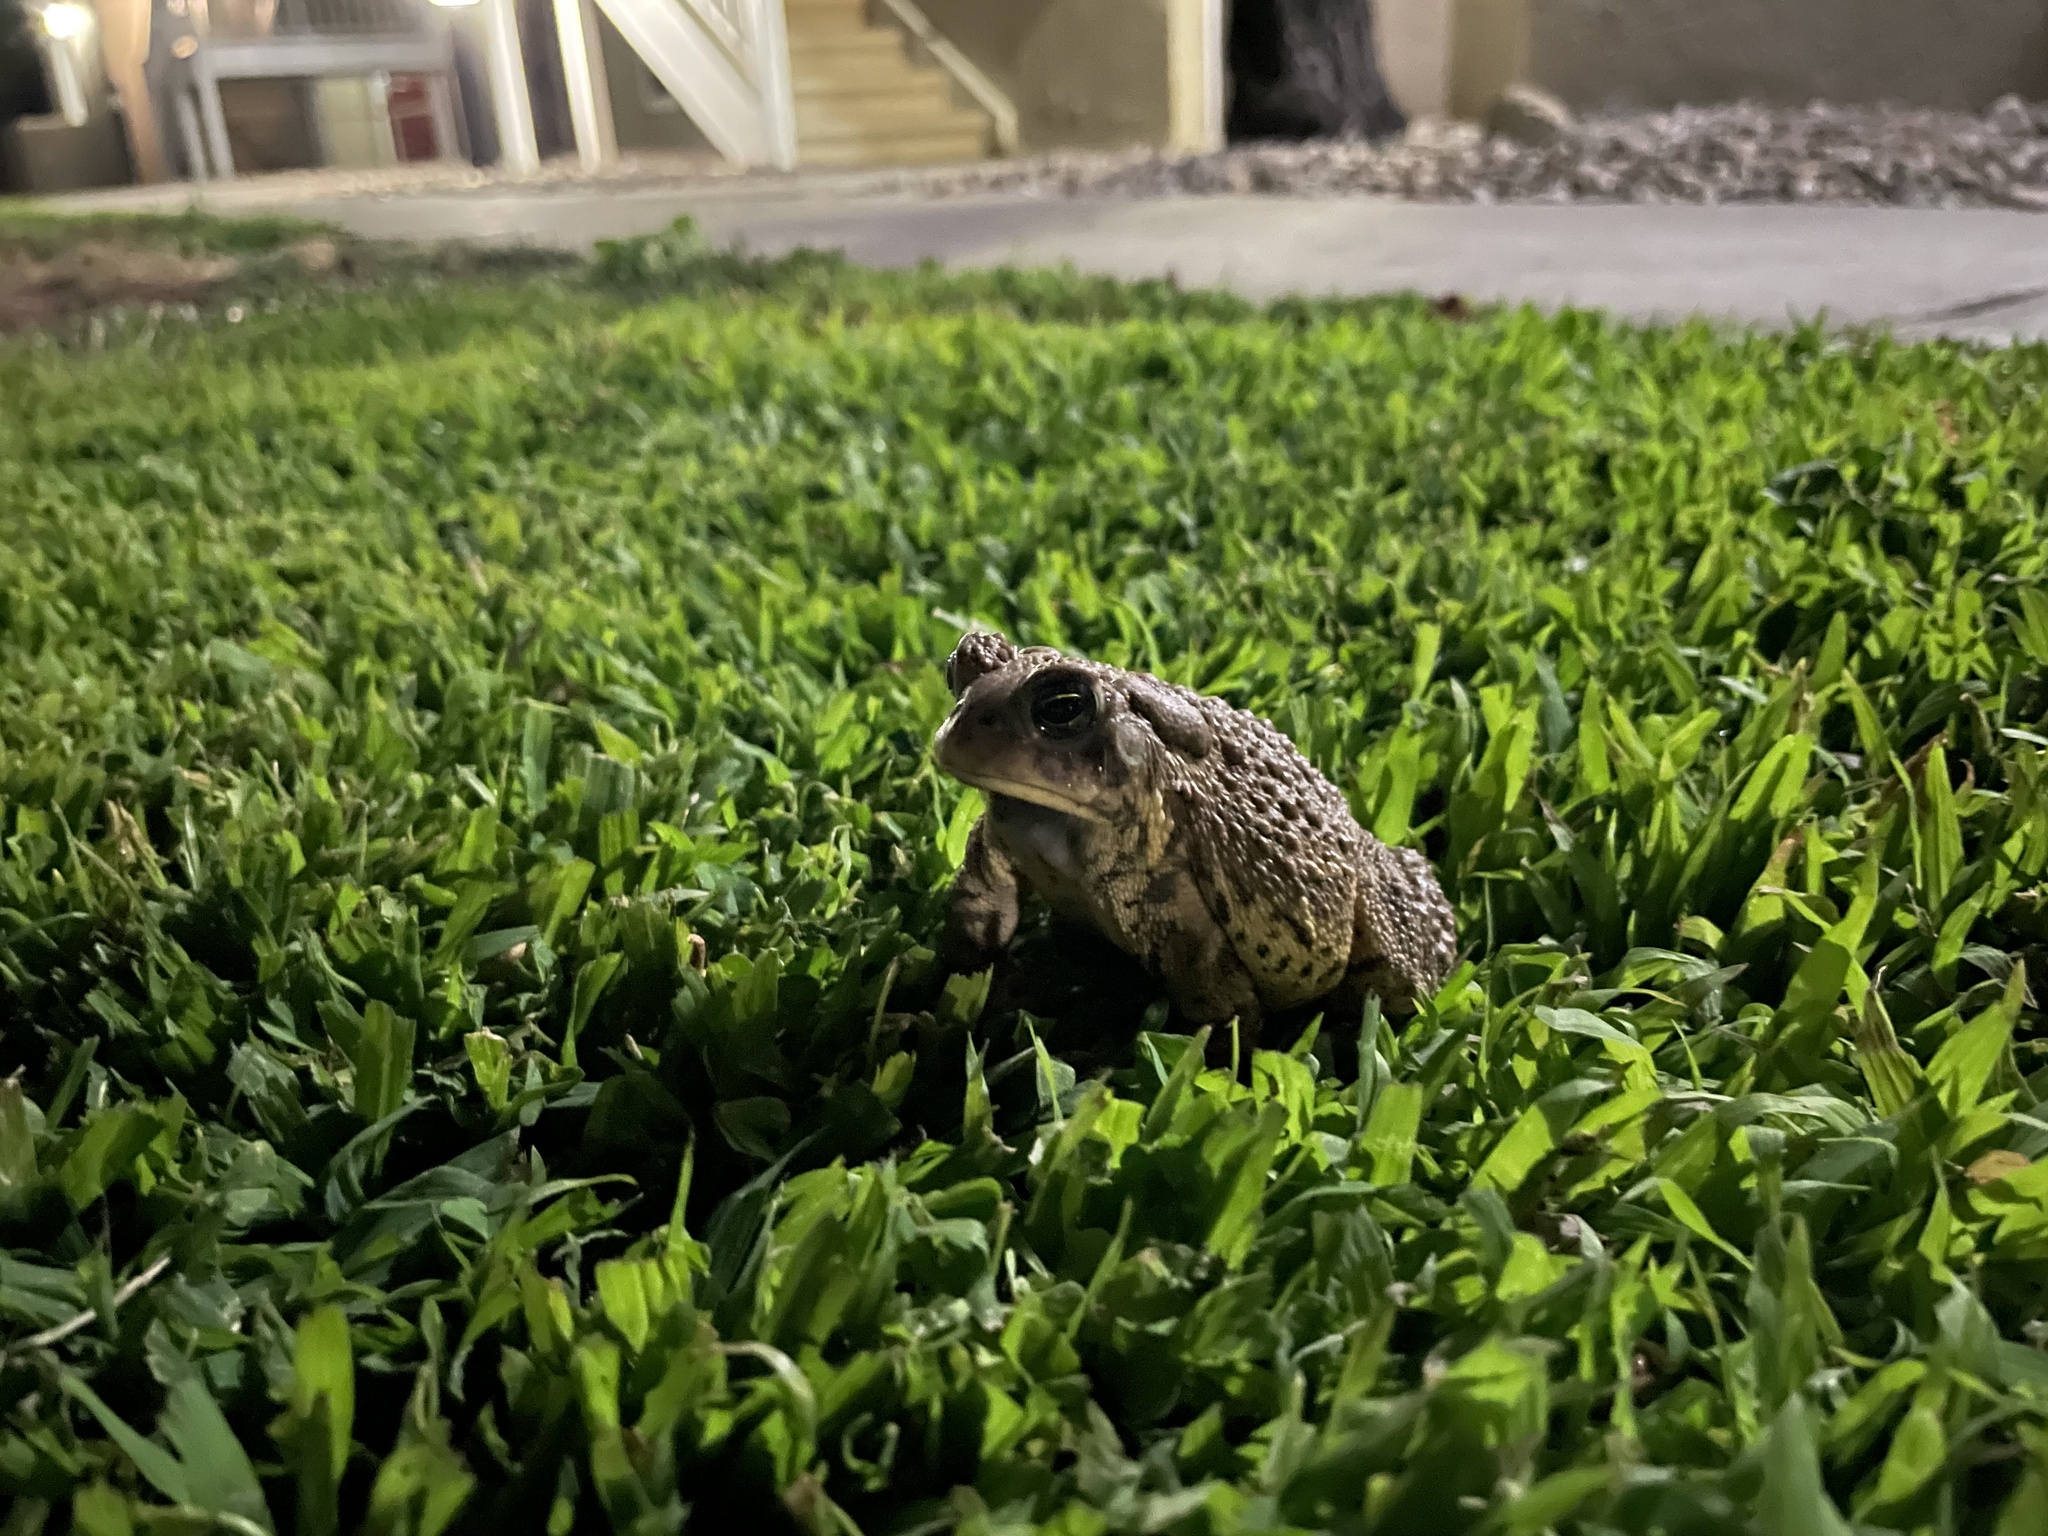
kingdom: Animalia
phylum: Chordata
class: Amphibia
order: Anura
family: Bufonidae
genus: Anaxyrus
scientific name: Anaxyrus woodhousii
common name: Woodhouse's toad
